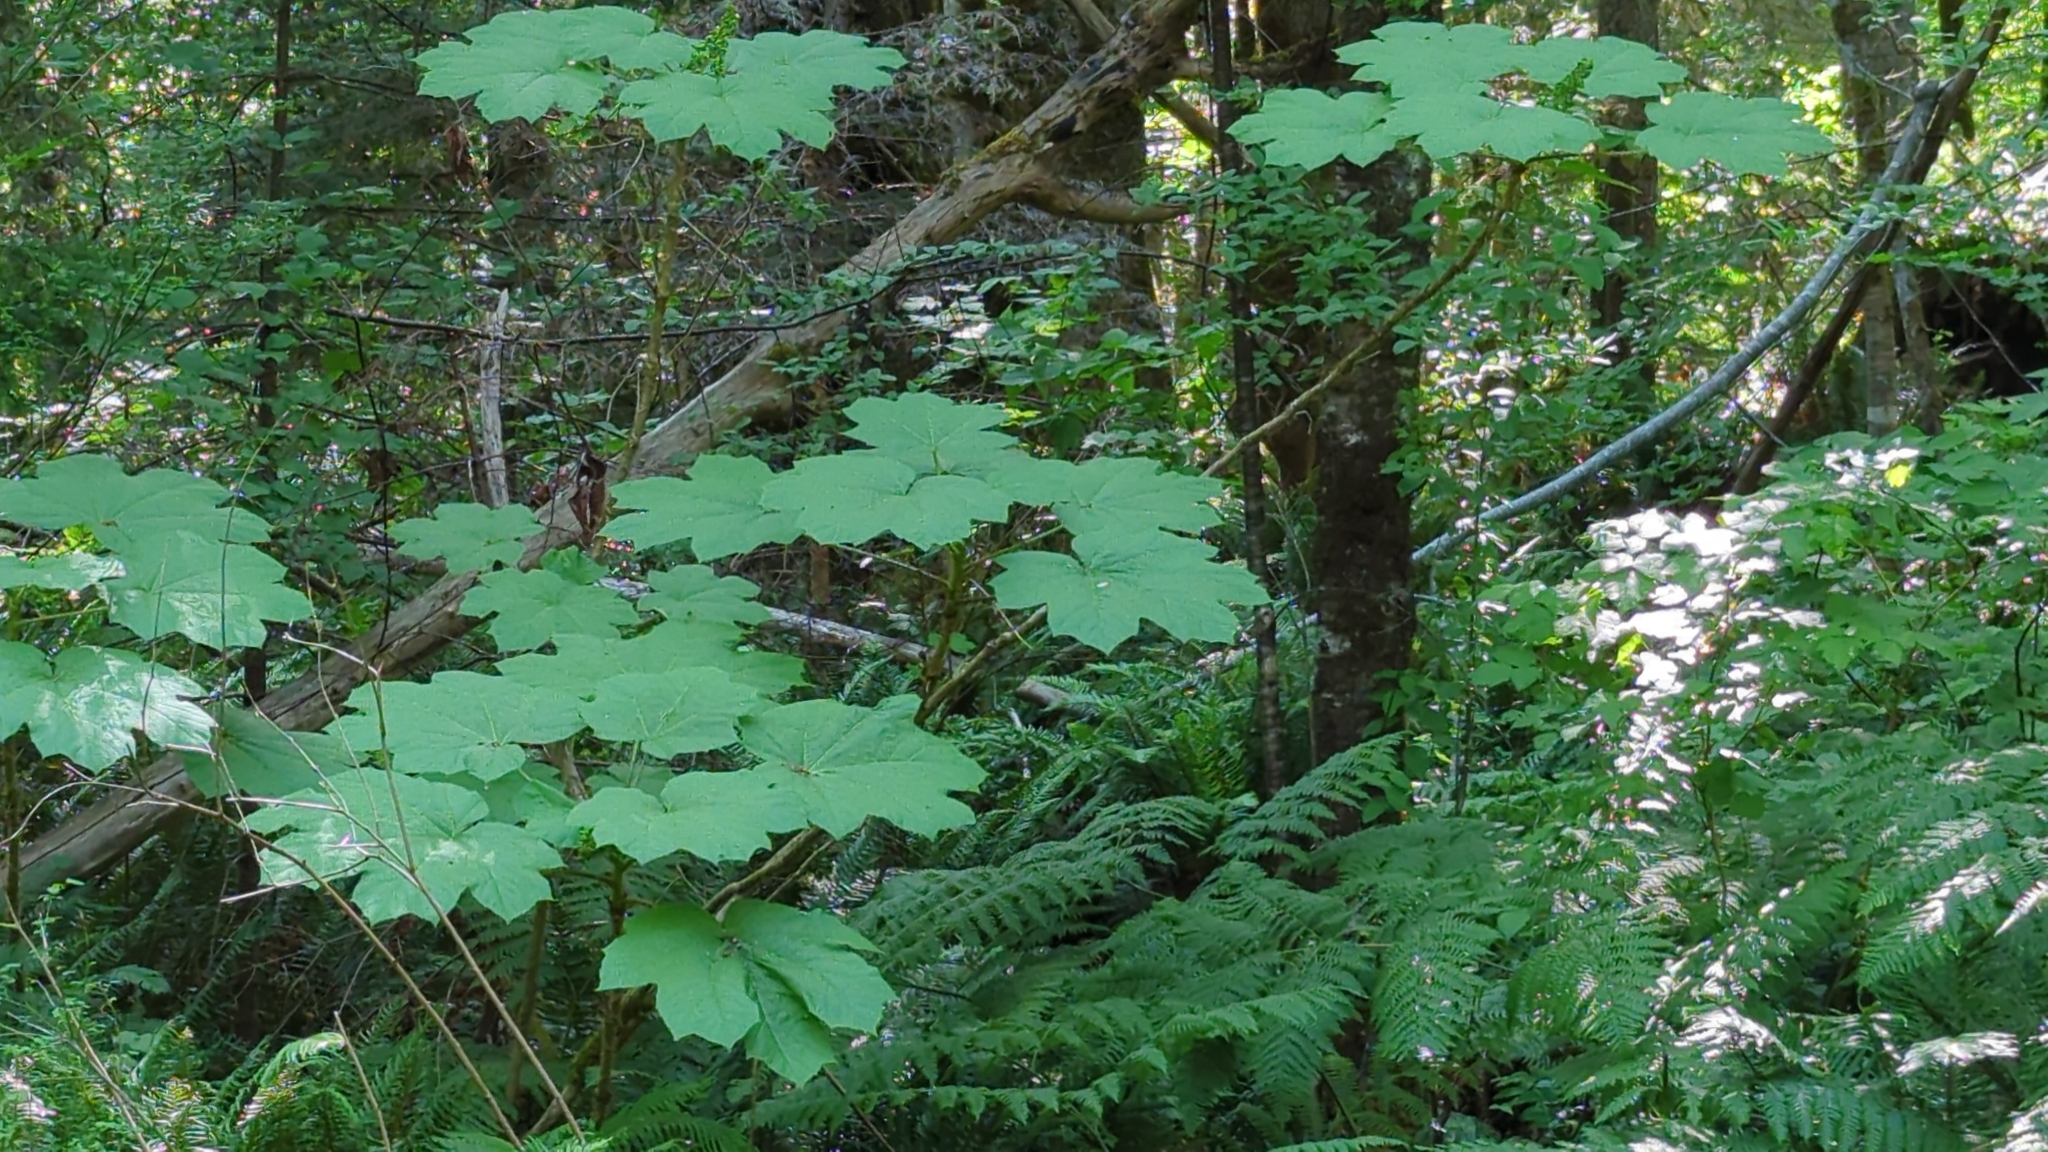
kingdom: Plantae
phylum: Tracheophyta
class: Magnoliopsida
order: Apiales
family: Araliaceae
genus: Oplopanax
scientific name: Oplopanax horridus
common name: Devil's walking-stick
